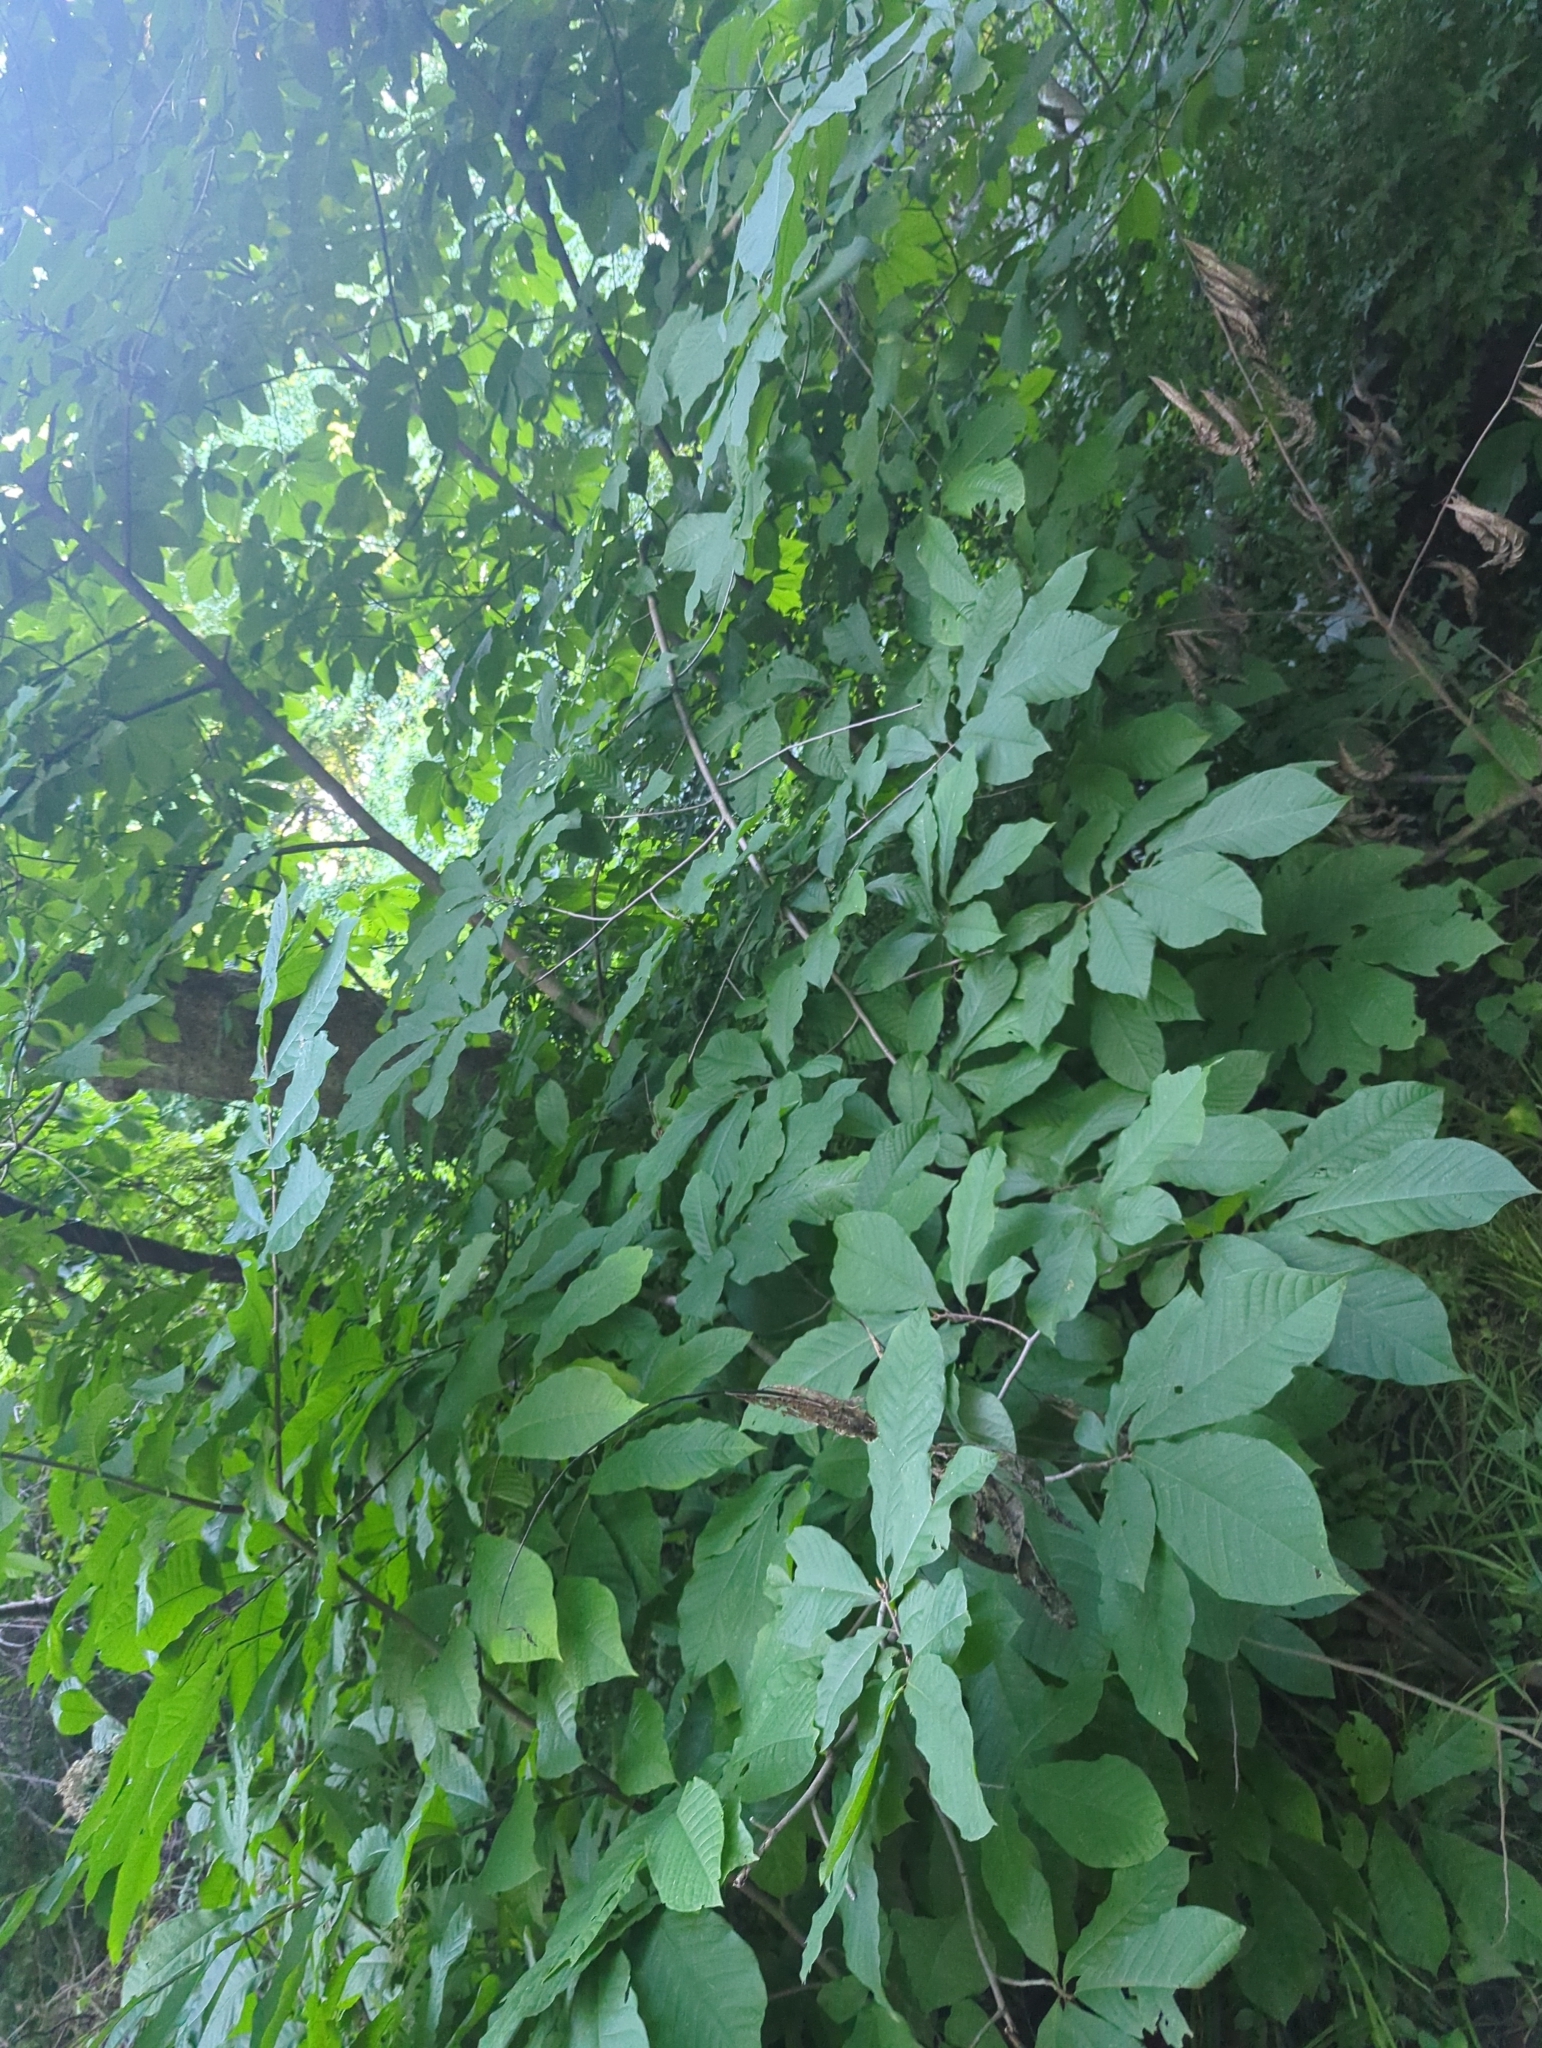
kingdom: Plantae
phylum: Tracheophyta
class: Magnoliopsida
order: Magnoliales
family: Annonaceae
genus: Asimina
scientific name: Asimina triloba
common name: Dog-banana
